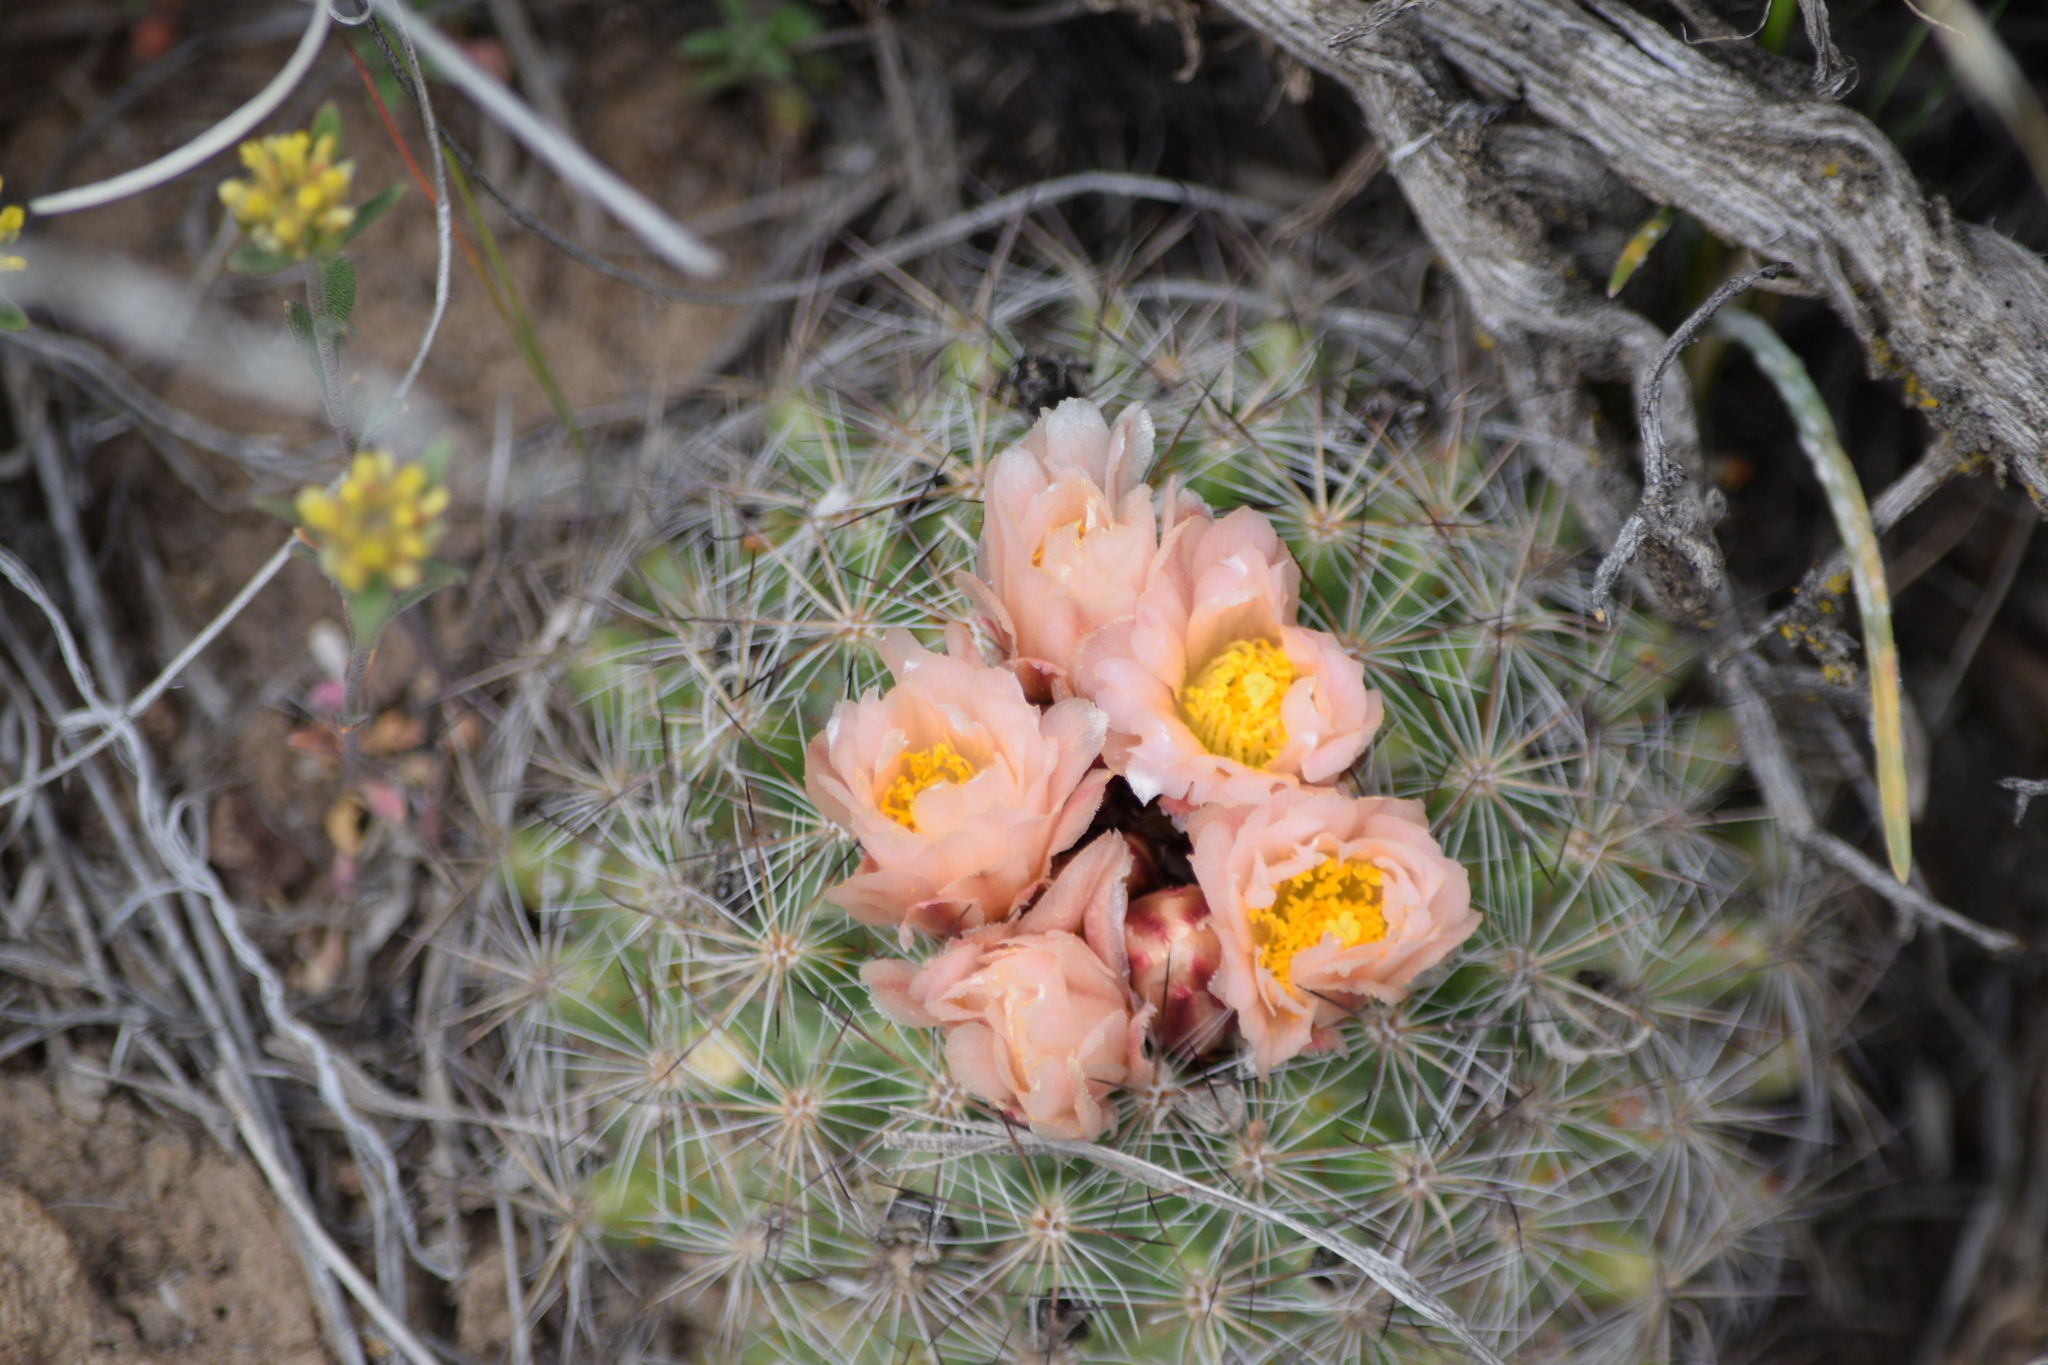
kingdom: Plantae
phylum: Tracheophyta
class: Magnoliopsida
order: Caryophyllales
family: Cactaceae
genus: Pediocactus
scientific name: Pediocactus simpsonii
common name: Simpson's hedgehog cactus
